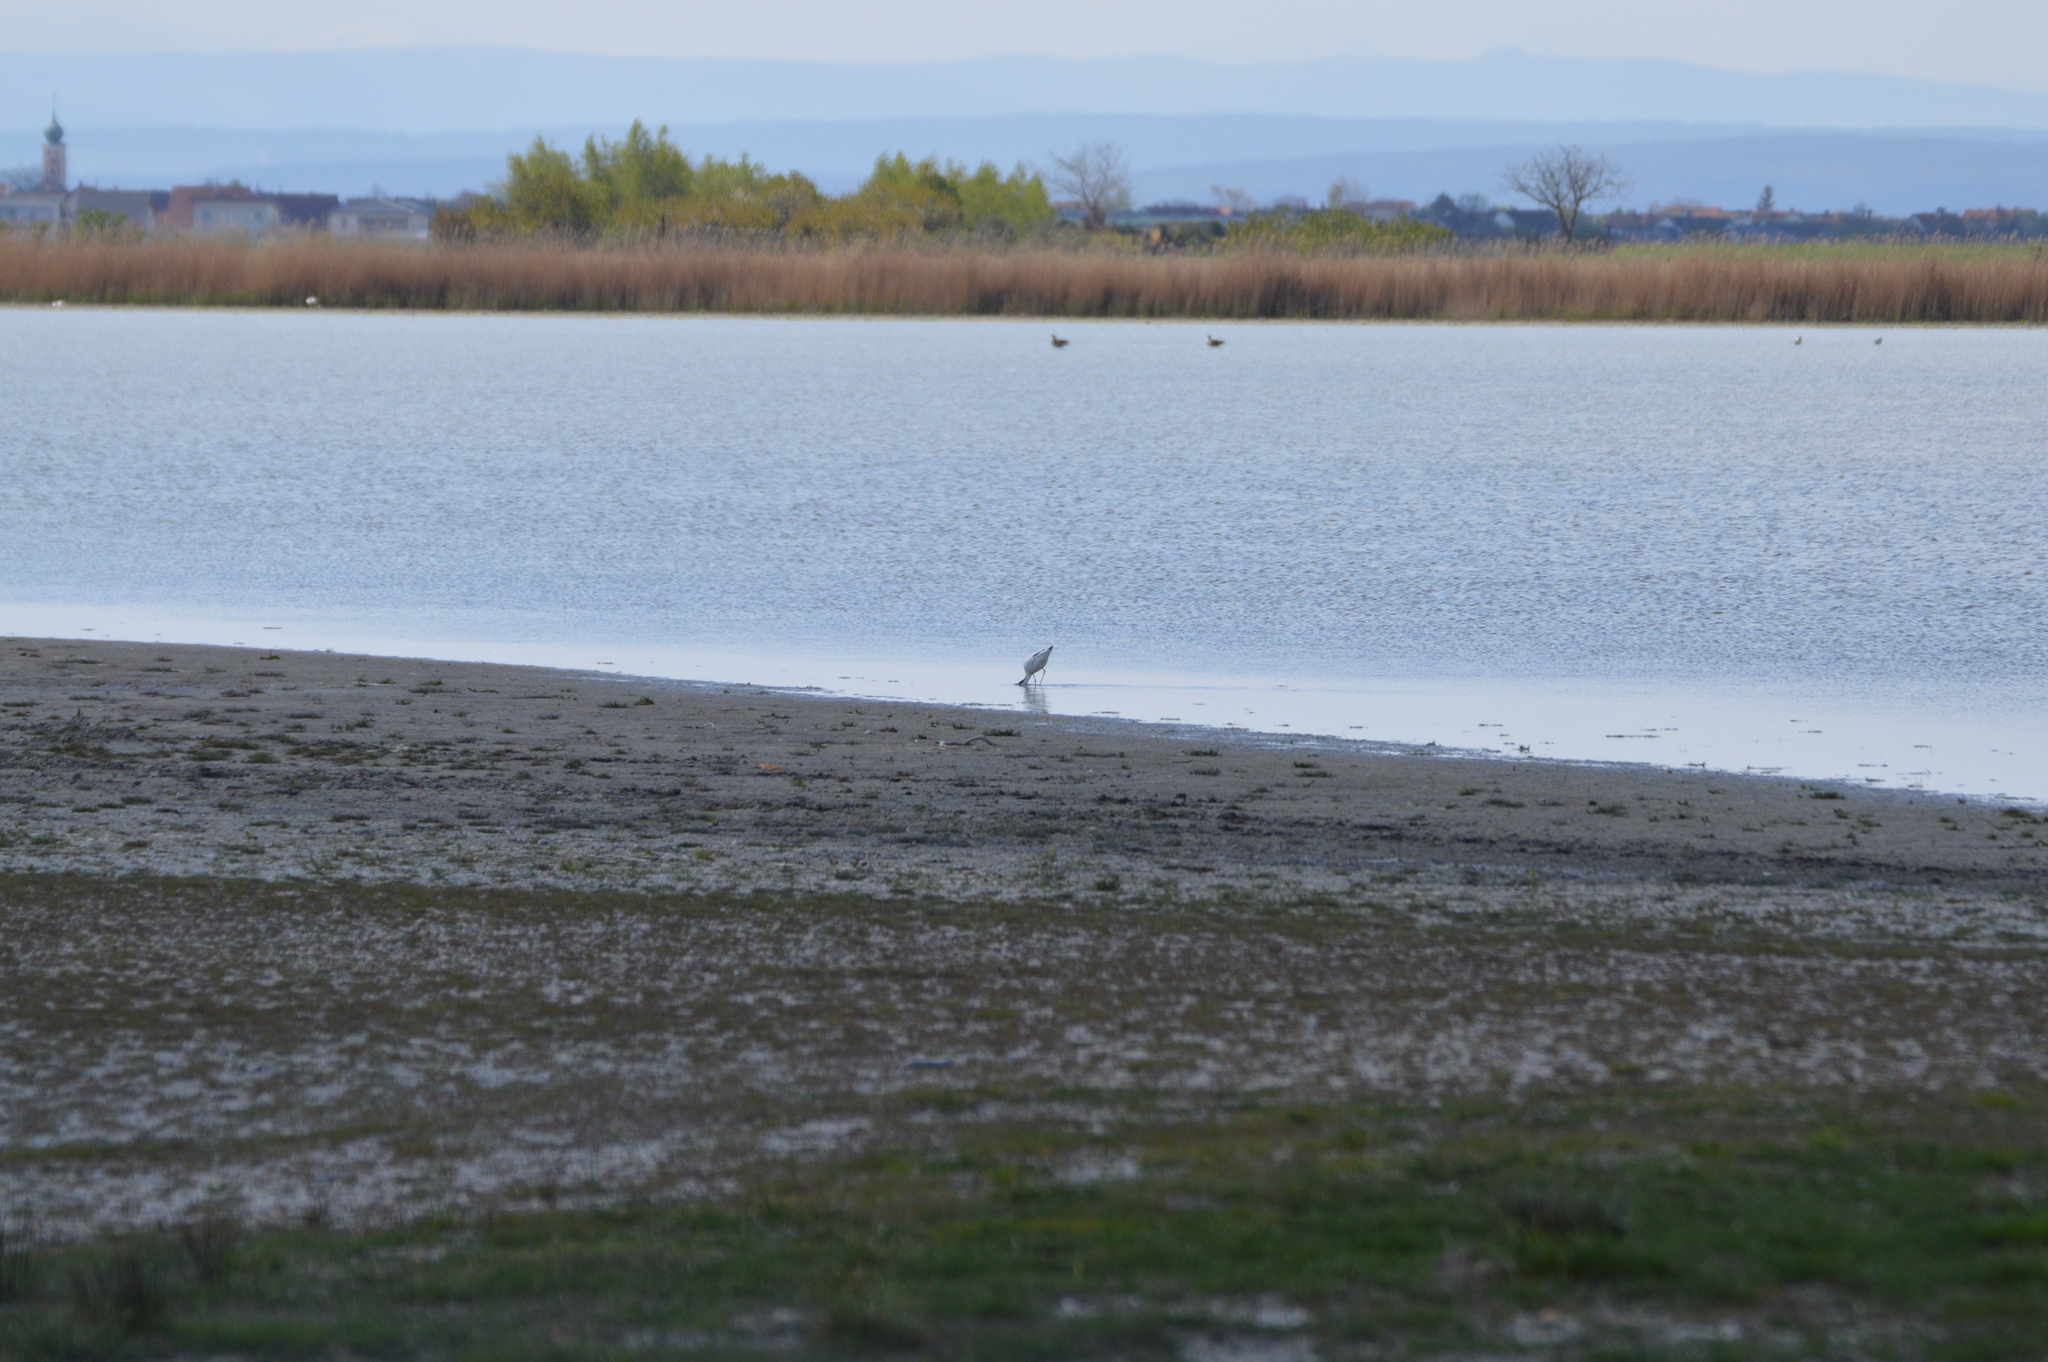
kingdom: Animalia
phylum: Chordata
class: Aves
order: Charadriiformes
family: Recurvirostridae
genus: Recurvirostra
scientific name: Recurvirostra avosetta
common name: Pied avocet
